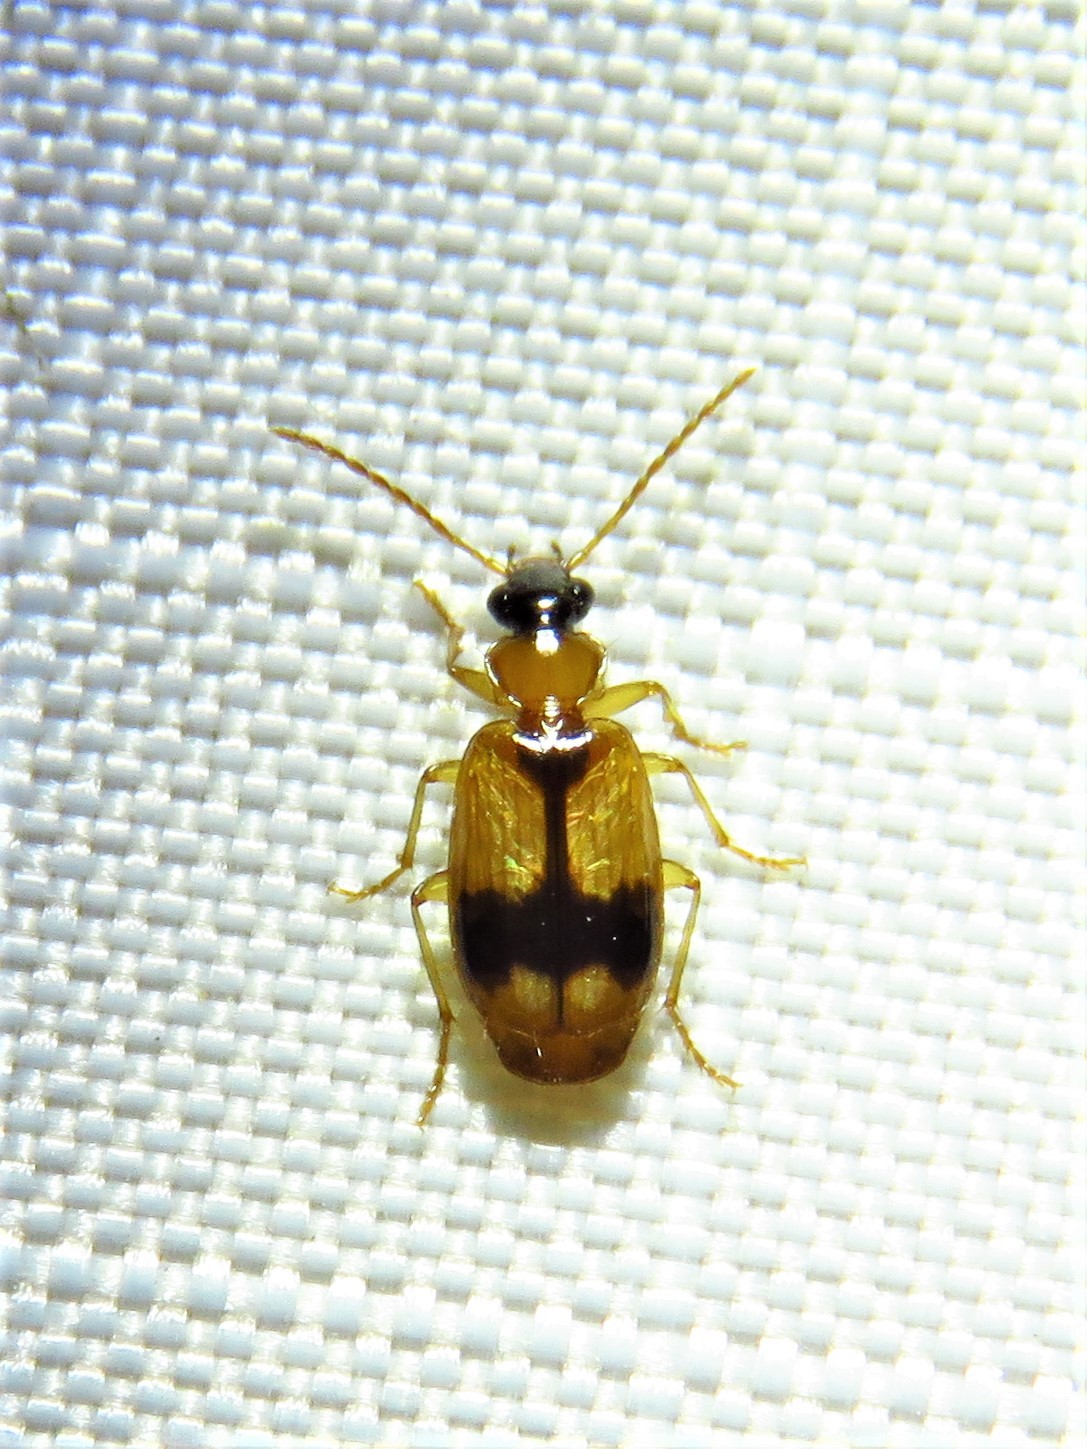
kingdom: Animalia
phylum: Arthropoda
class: Insecta
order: Coleoptera
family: Carabidae
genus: Lebia
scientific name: Lebia esurialis
